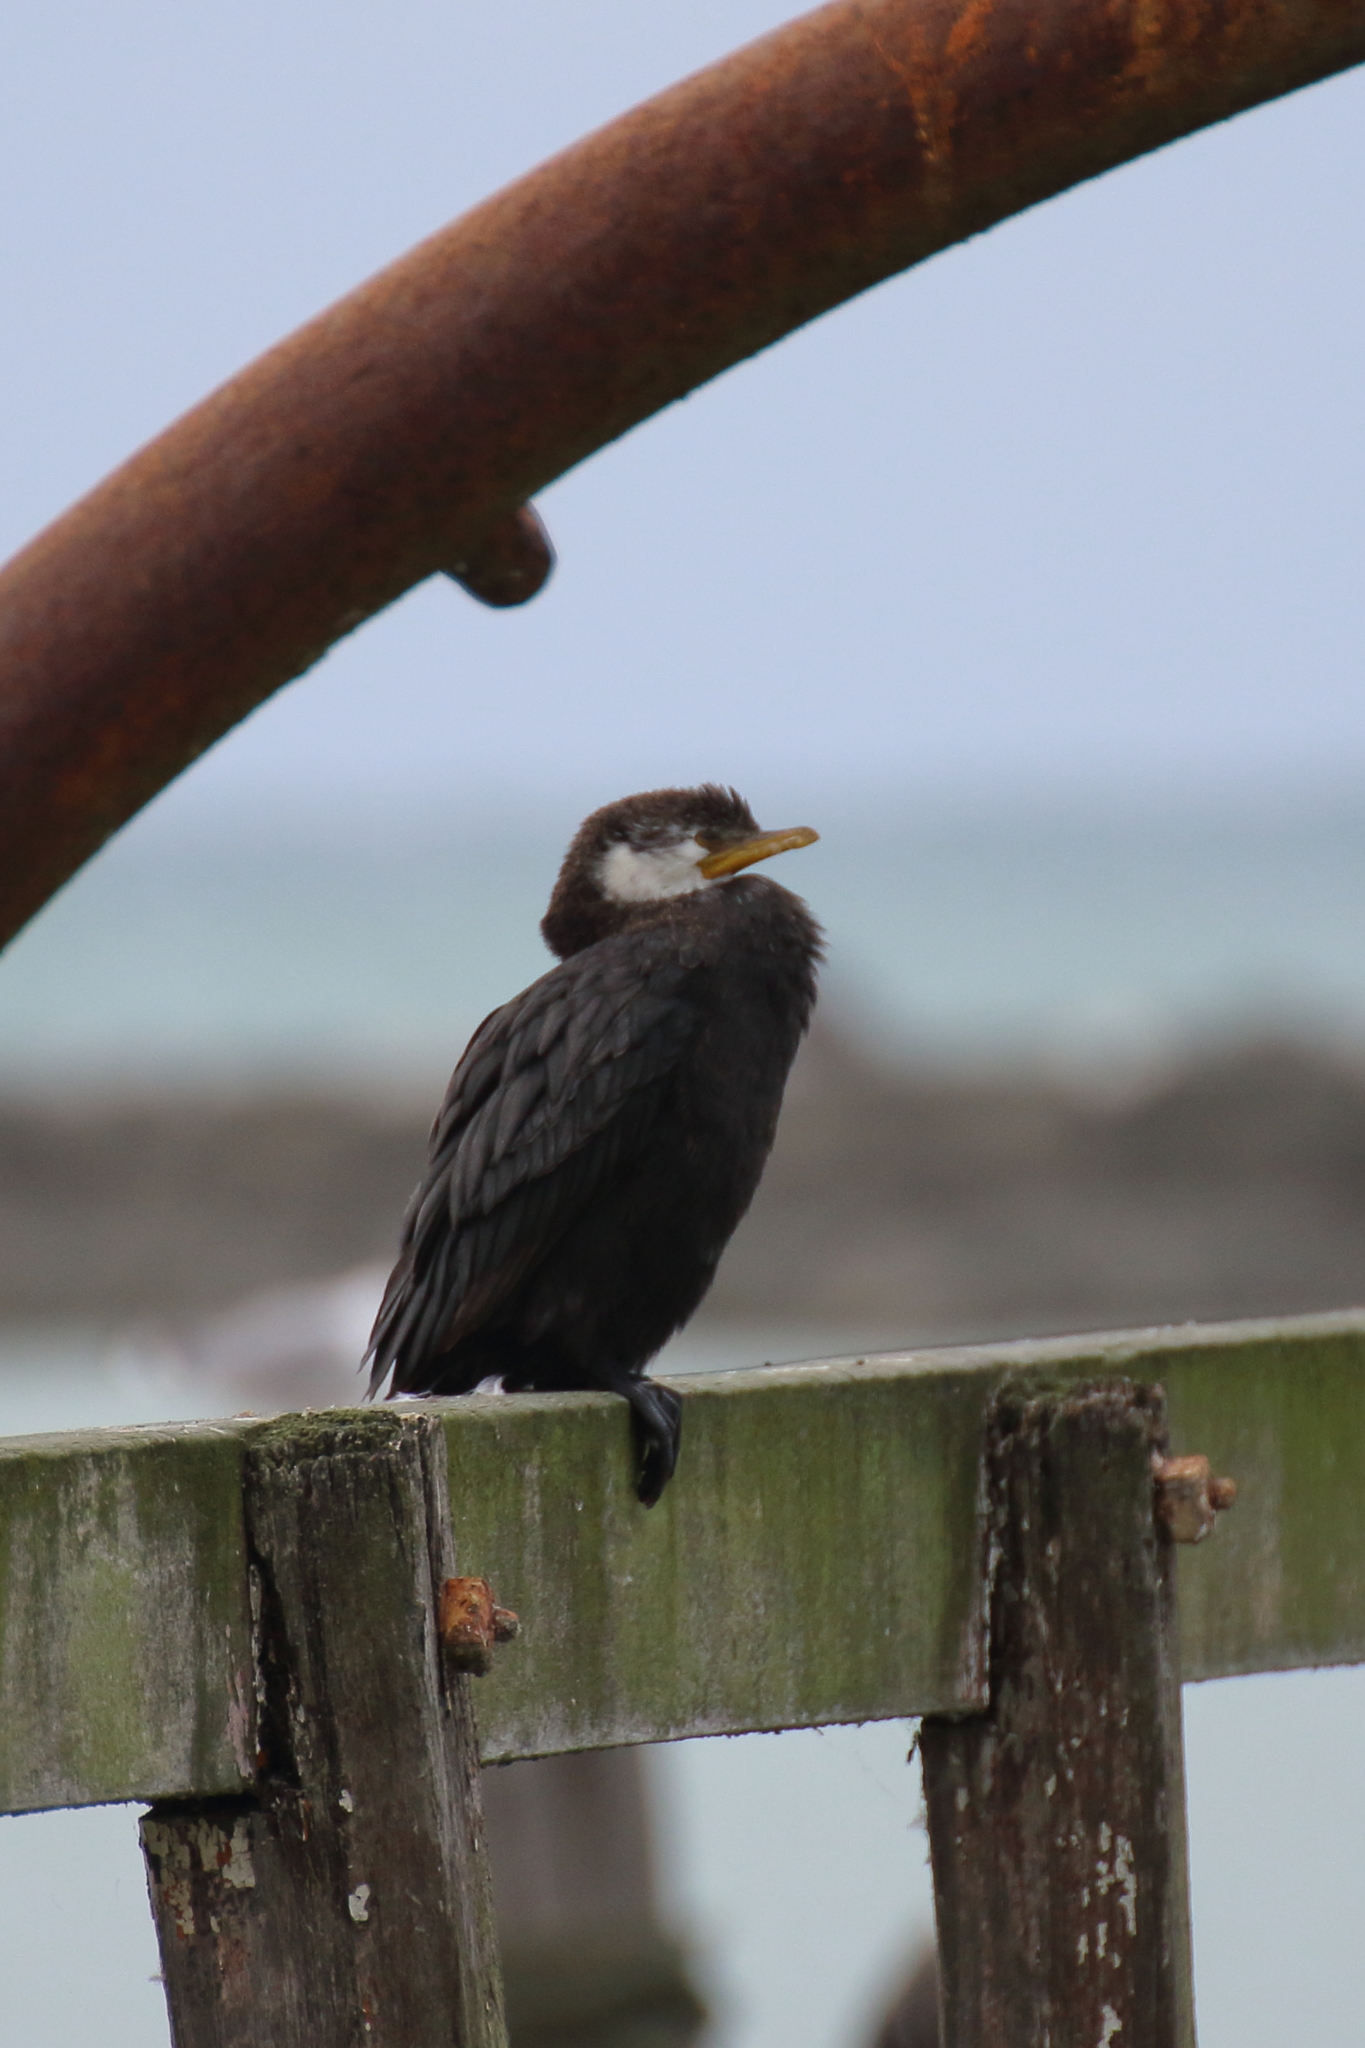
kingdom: Animalia
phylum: Chordata
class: Aves
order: Suliformes
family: Phalacrocoracidae
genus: Microcarbo
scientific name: Microcarbo melanoleucos
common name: Little pied cormorant
